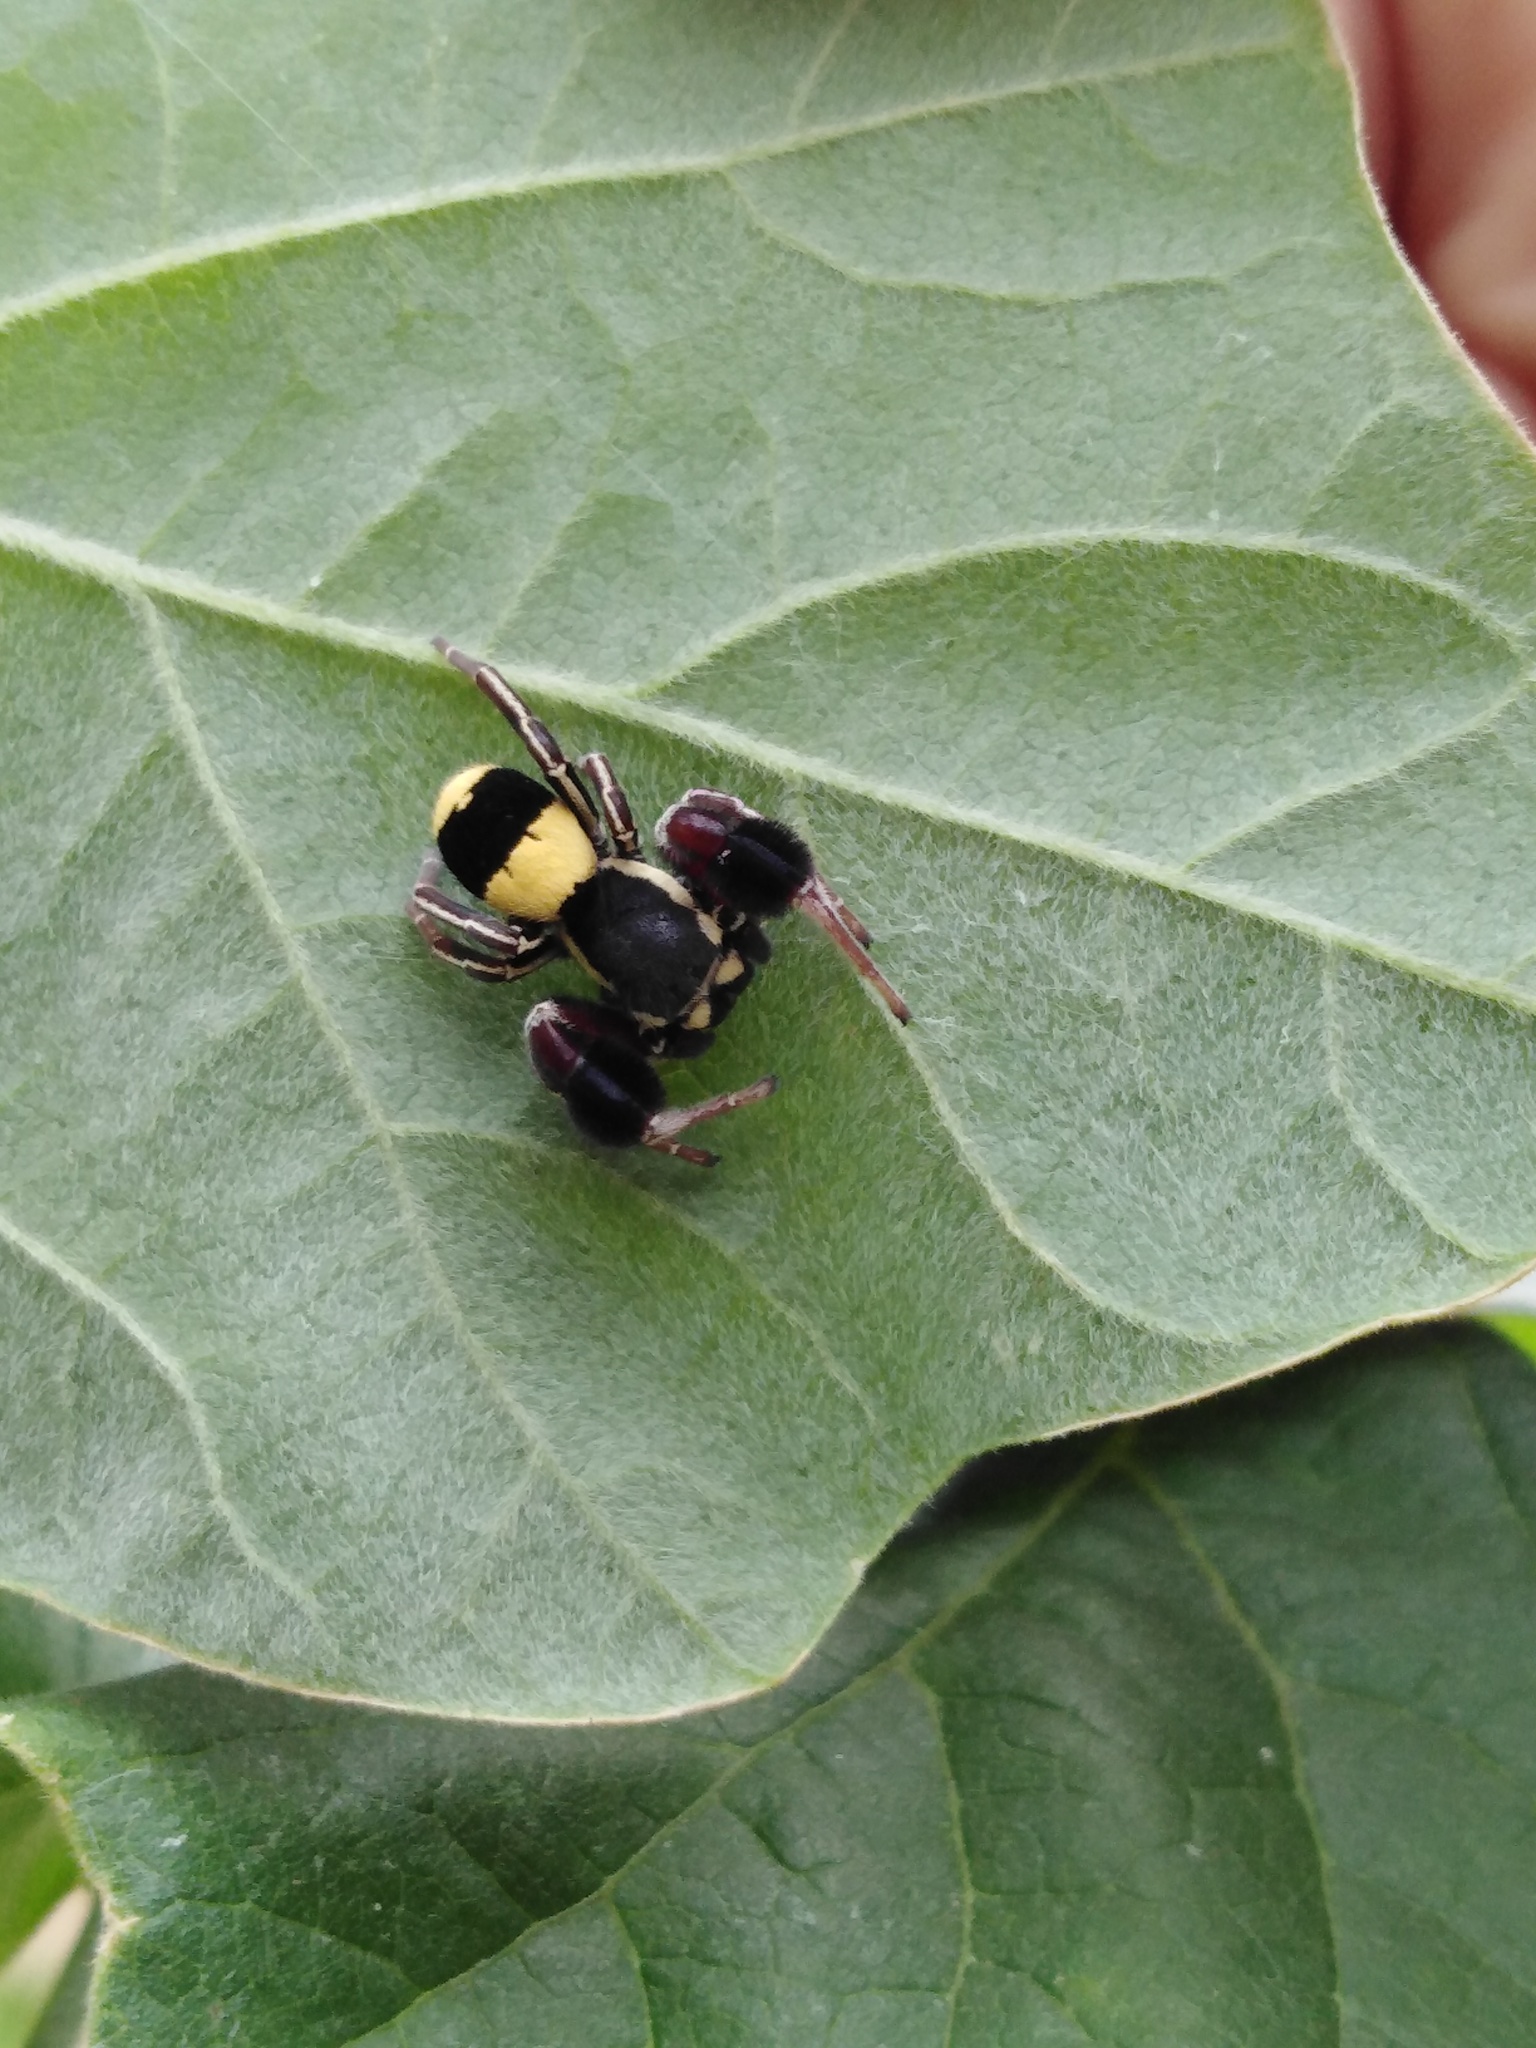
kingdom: Animalia
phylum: Arthropoda
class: Arachnida
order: Araneae
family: Eresidae
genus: Stegodyphus
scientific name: Stegodyphus tibialis
